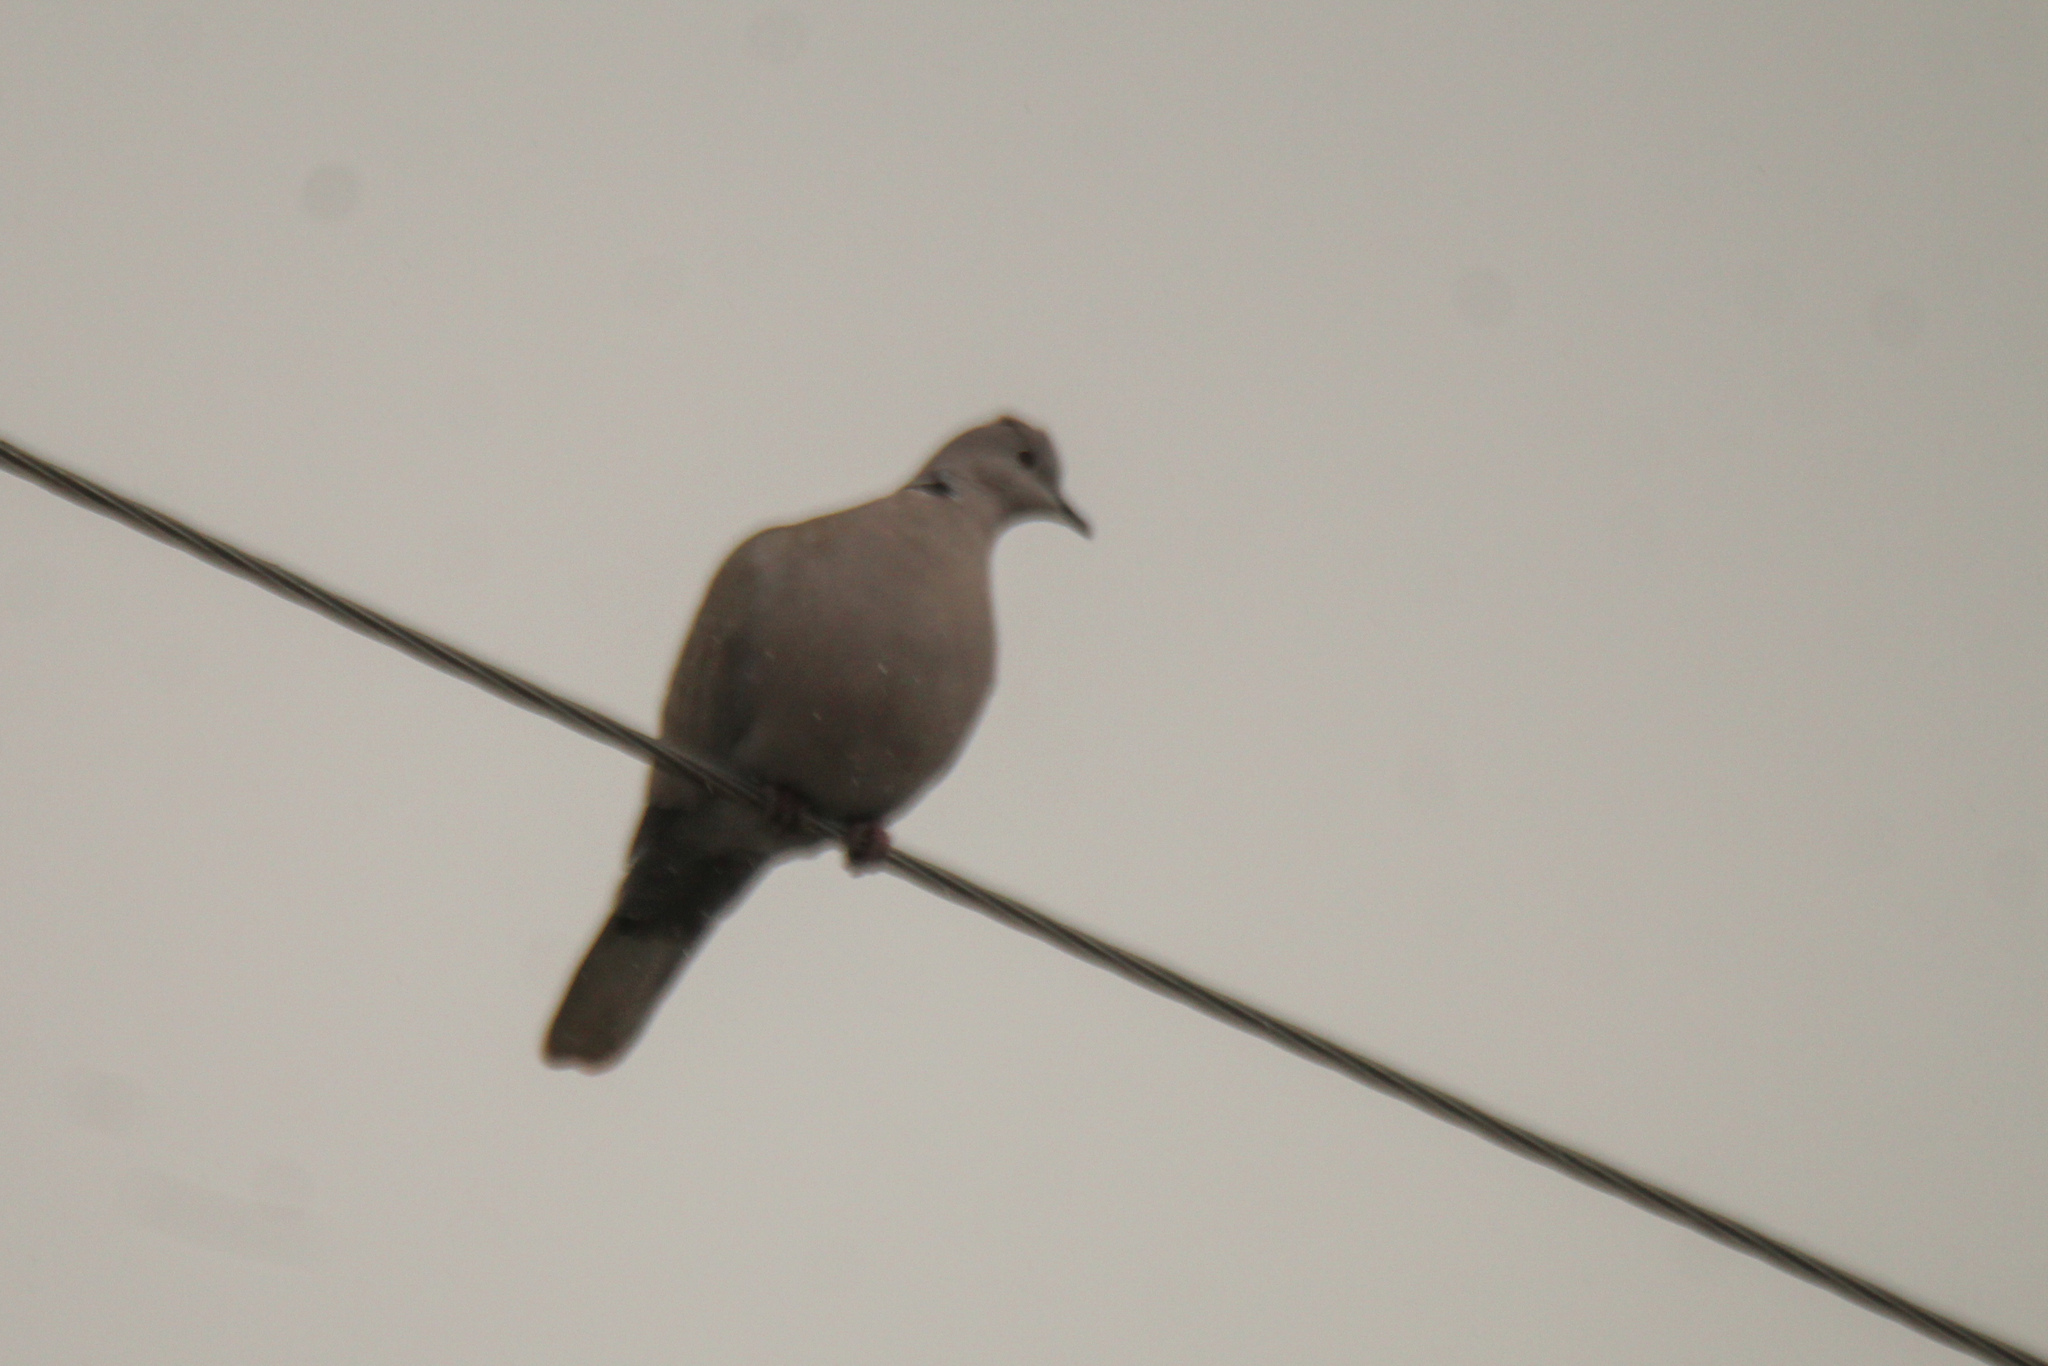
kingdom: Animalia
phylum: Chordata
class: Aves
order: Columbiformes
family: Columbidae
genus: Streptopelia
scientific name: Streptopelia decaocto
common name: Eurasian collared dove
